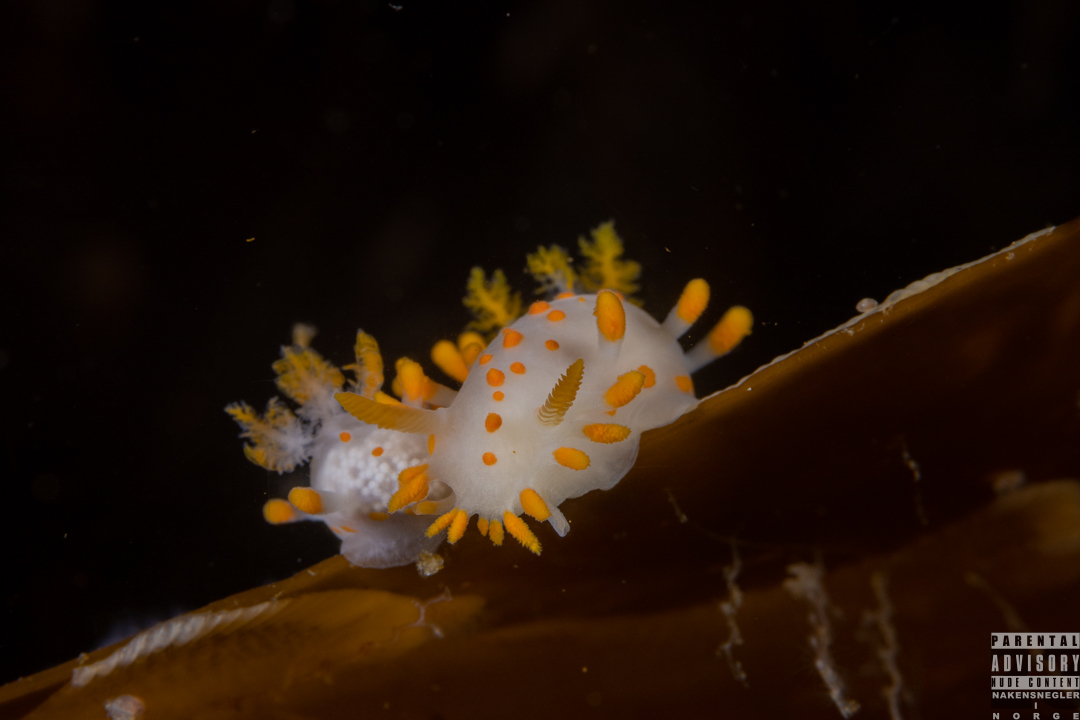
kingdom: Animalia
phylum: Mollusca
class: Gastropoda
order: Nudibranchia
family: Polyceridae
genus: Limacia
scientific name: Limacia clavigera
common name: Orange-clubbed sea slug
